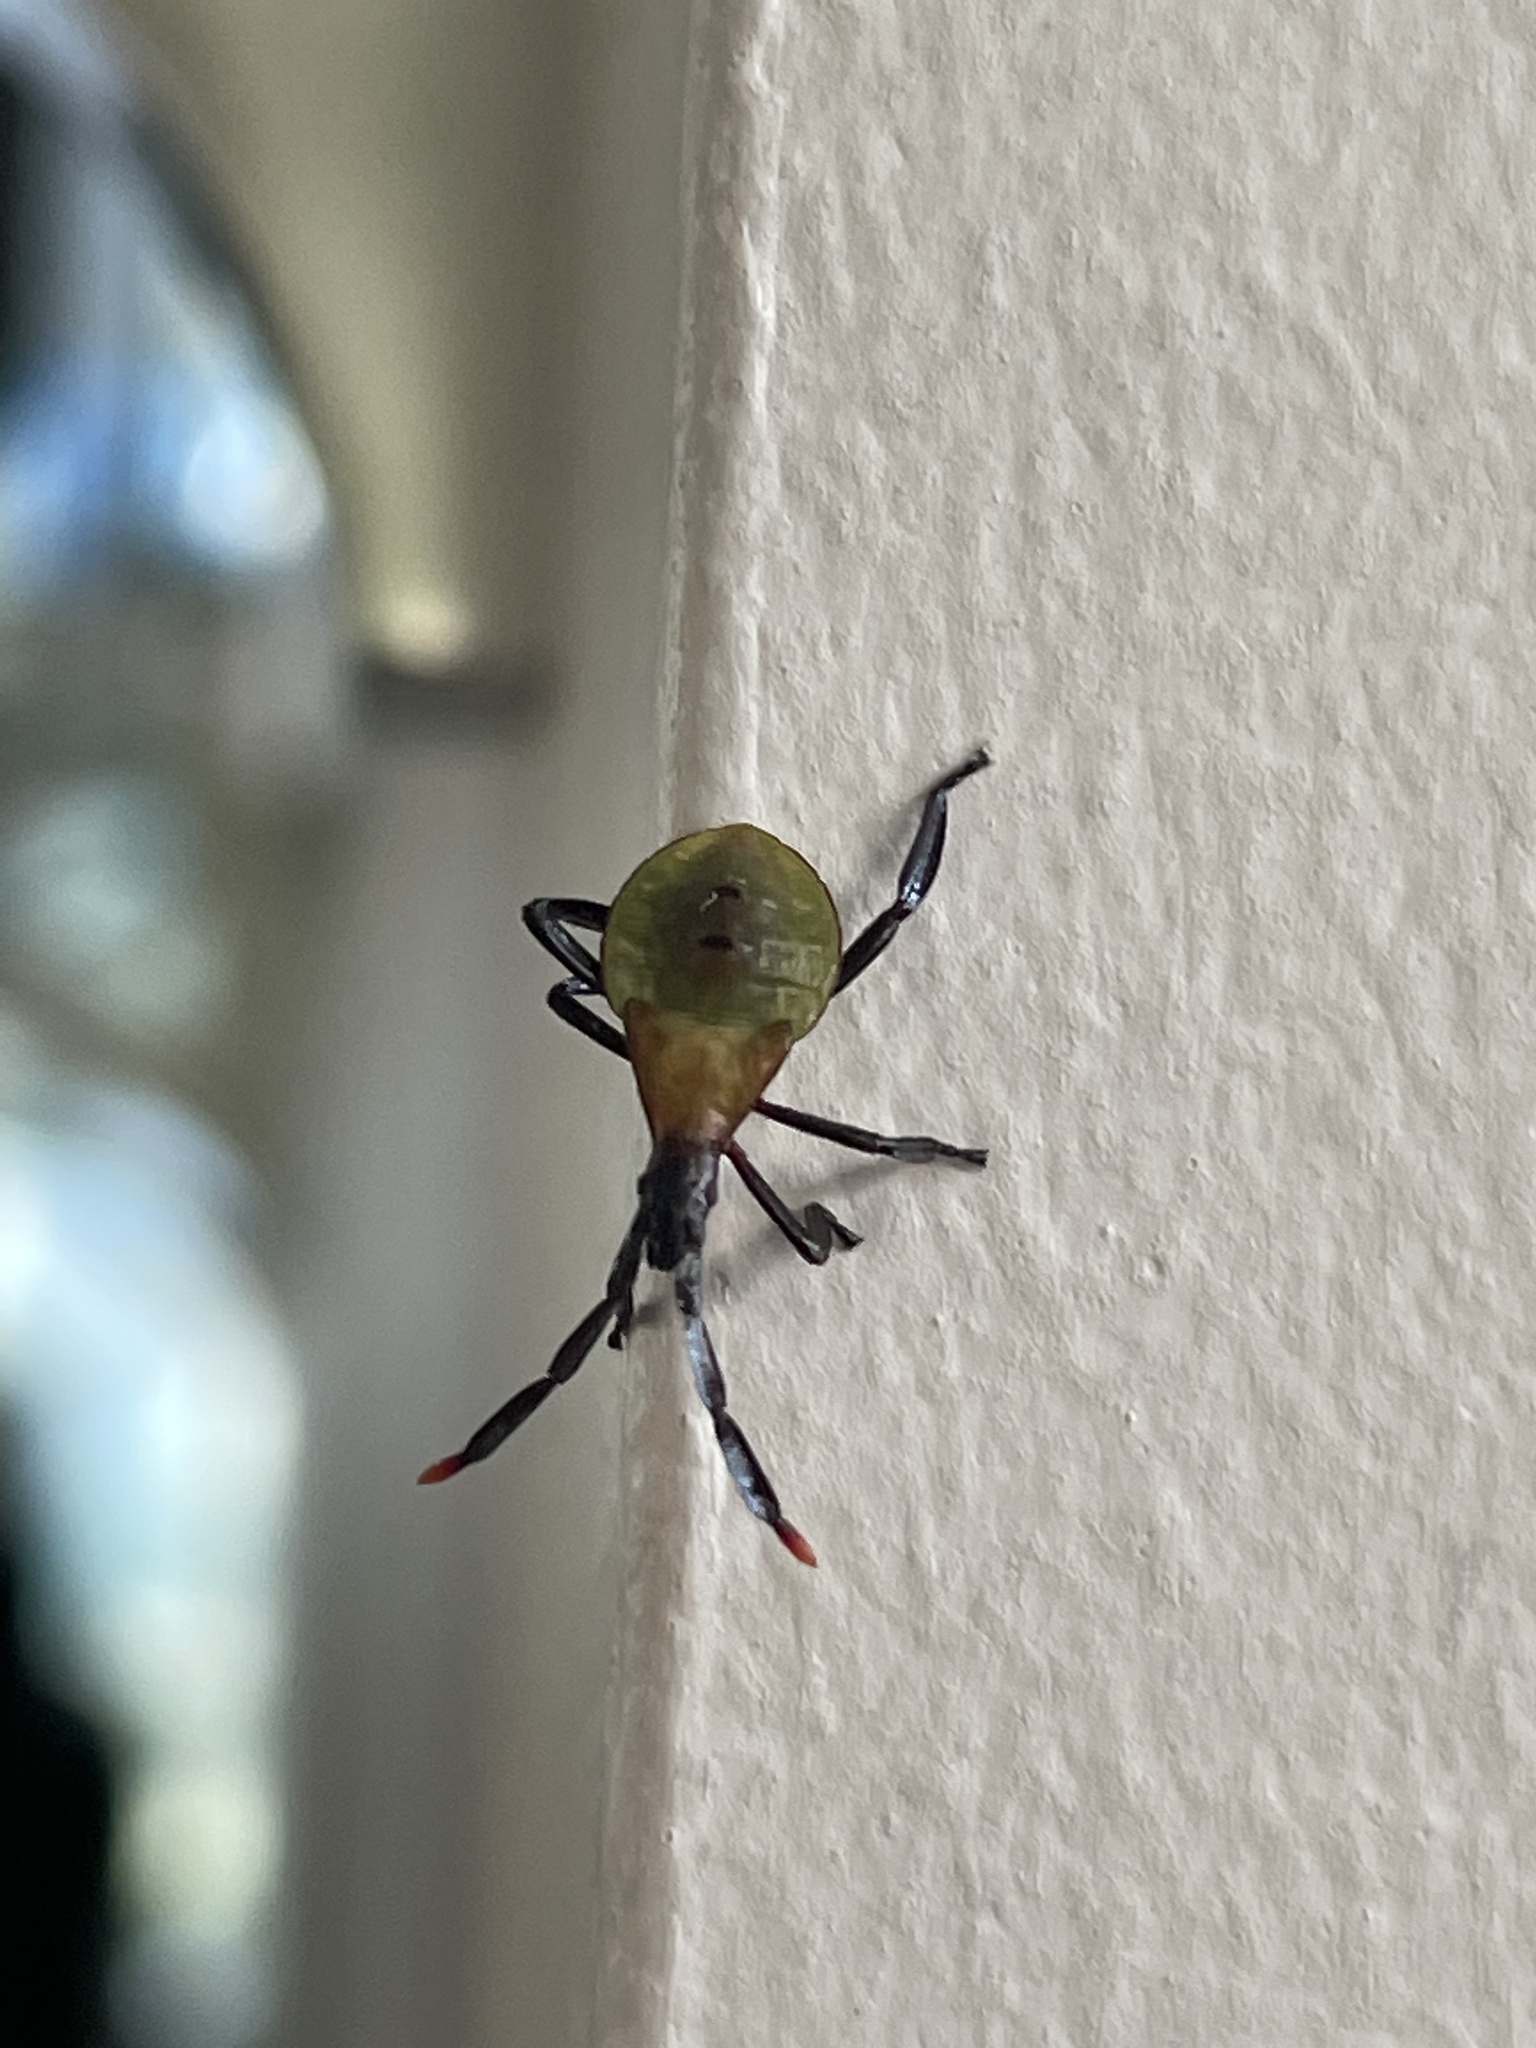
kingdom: Animalia
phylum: Arthropoda
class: Insecta
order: Hemiptera
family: Coreidae
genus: Chelinidea
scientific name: Chelinidea vittiger
